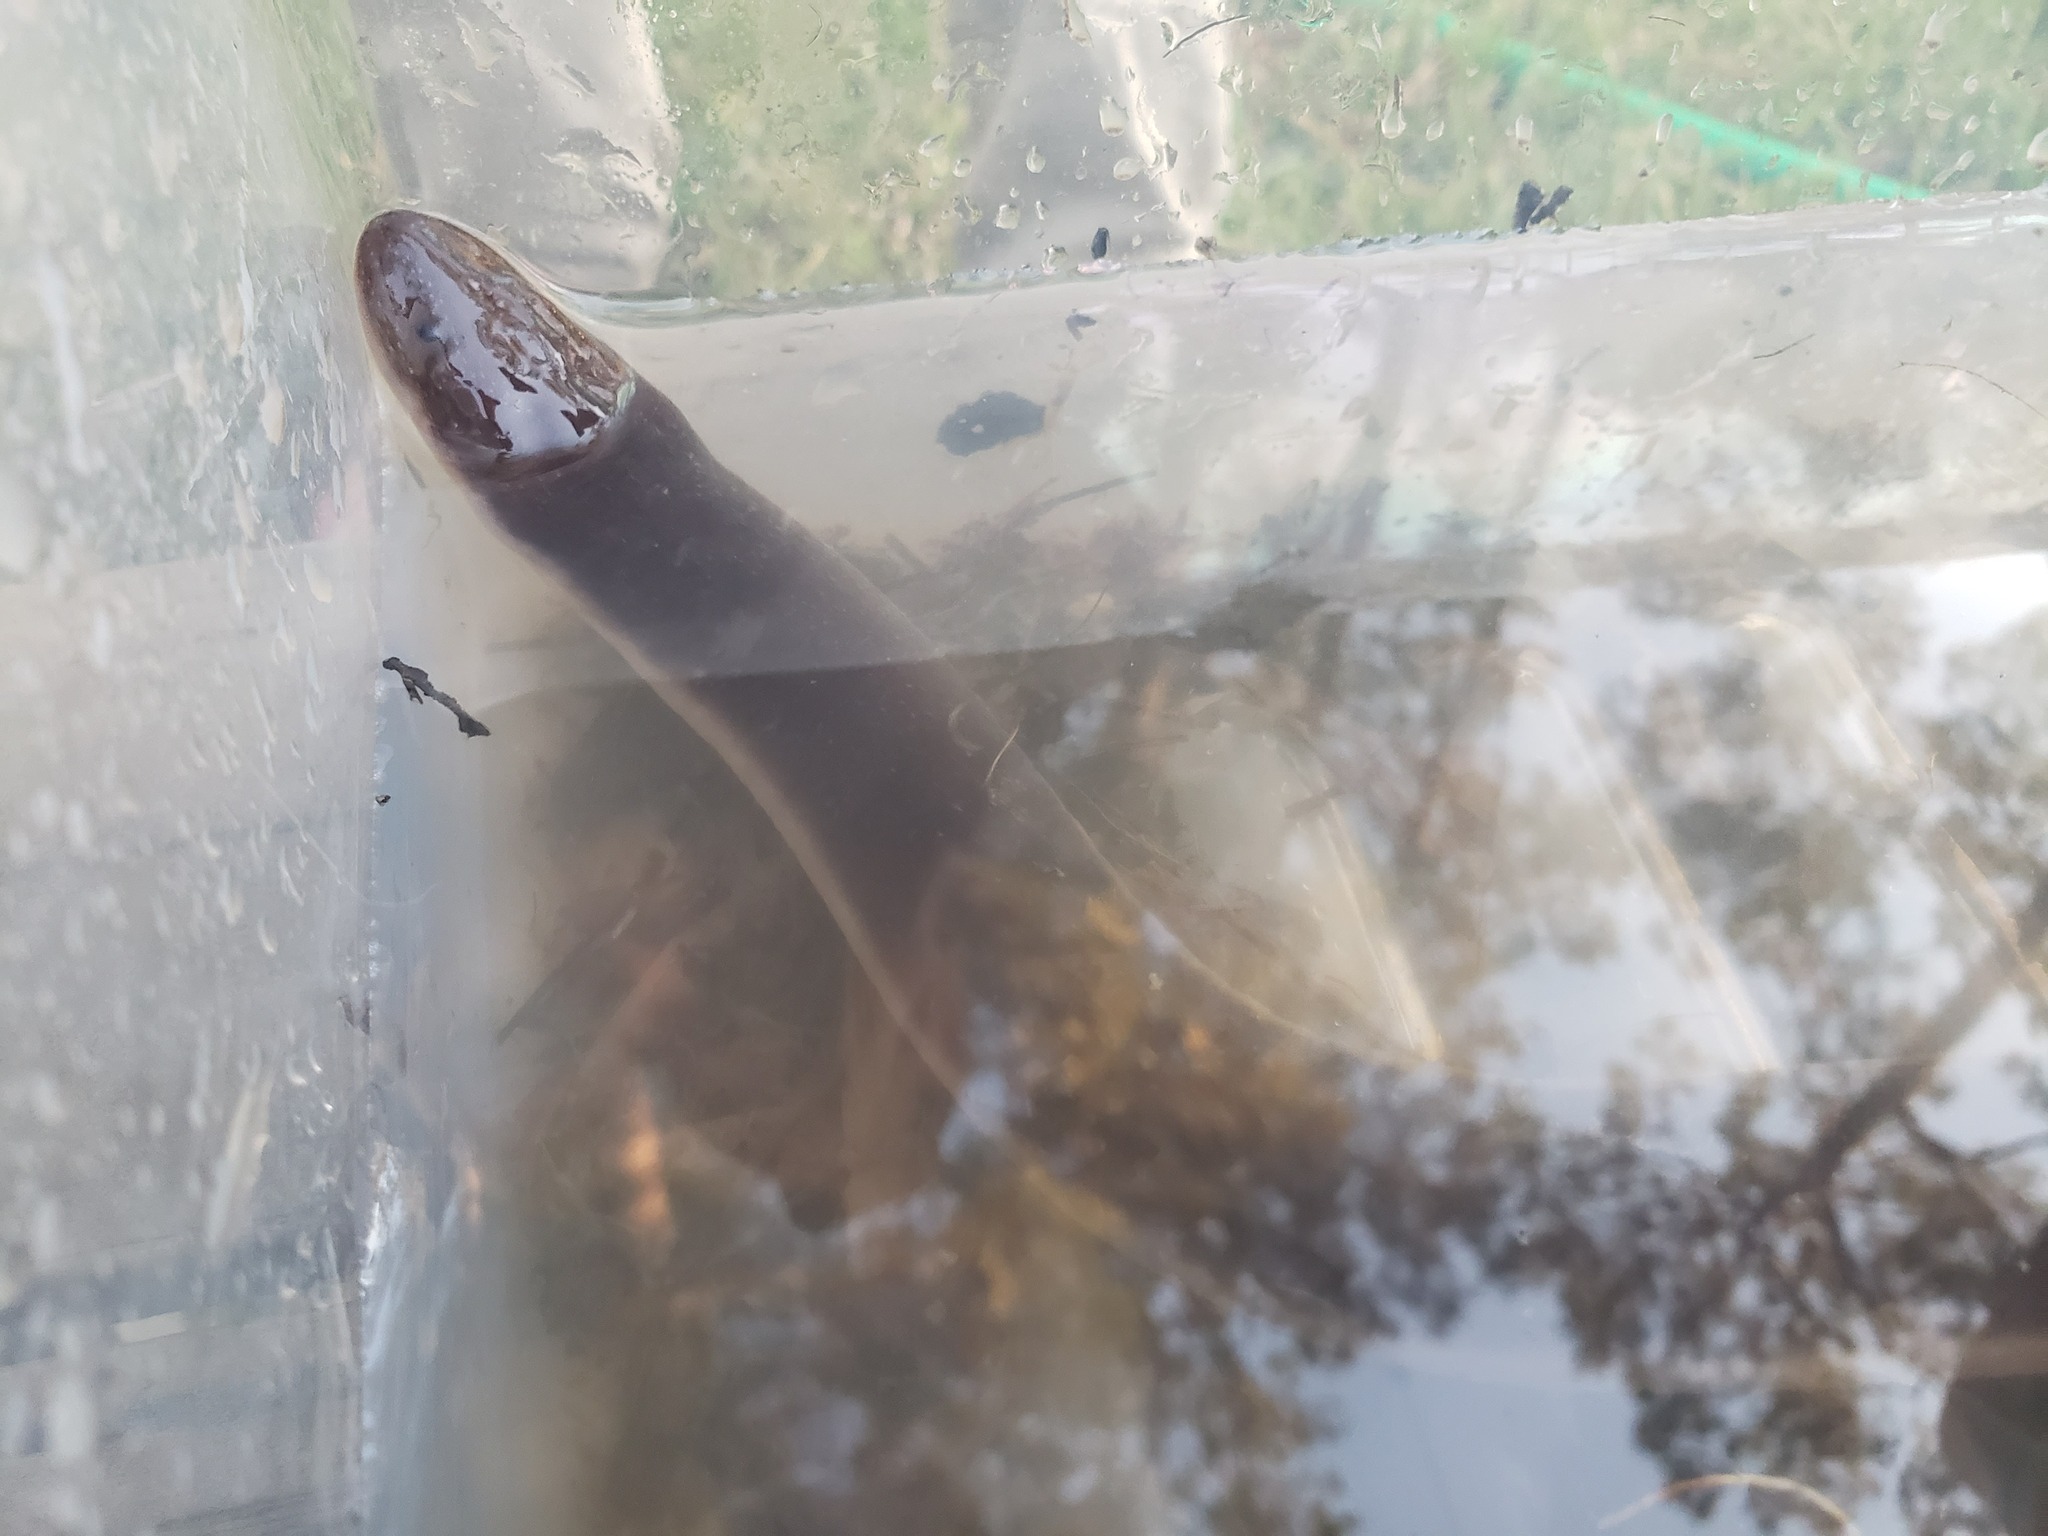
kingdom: Animalia
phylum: Chordata
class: Amphibia
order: Caudata
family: Amphiumidae
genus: Amphiuma
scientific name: Amphiuma
